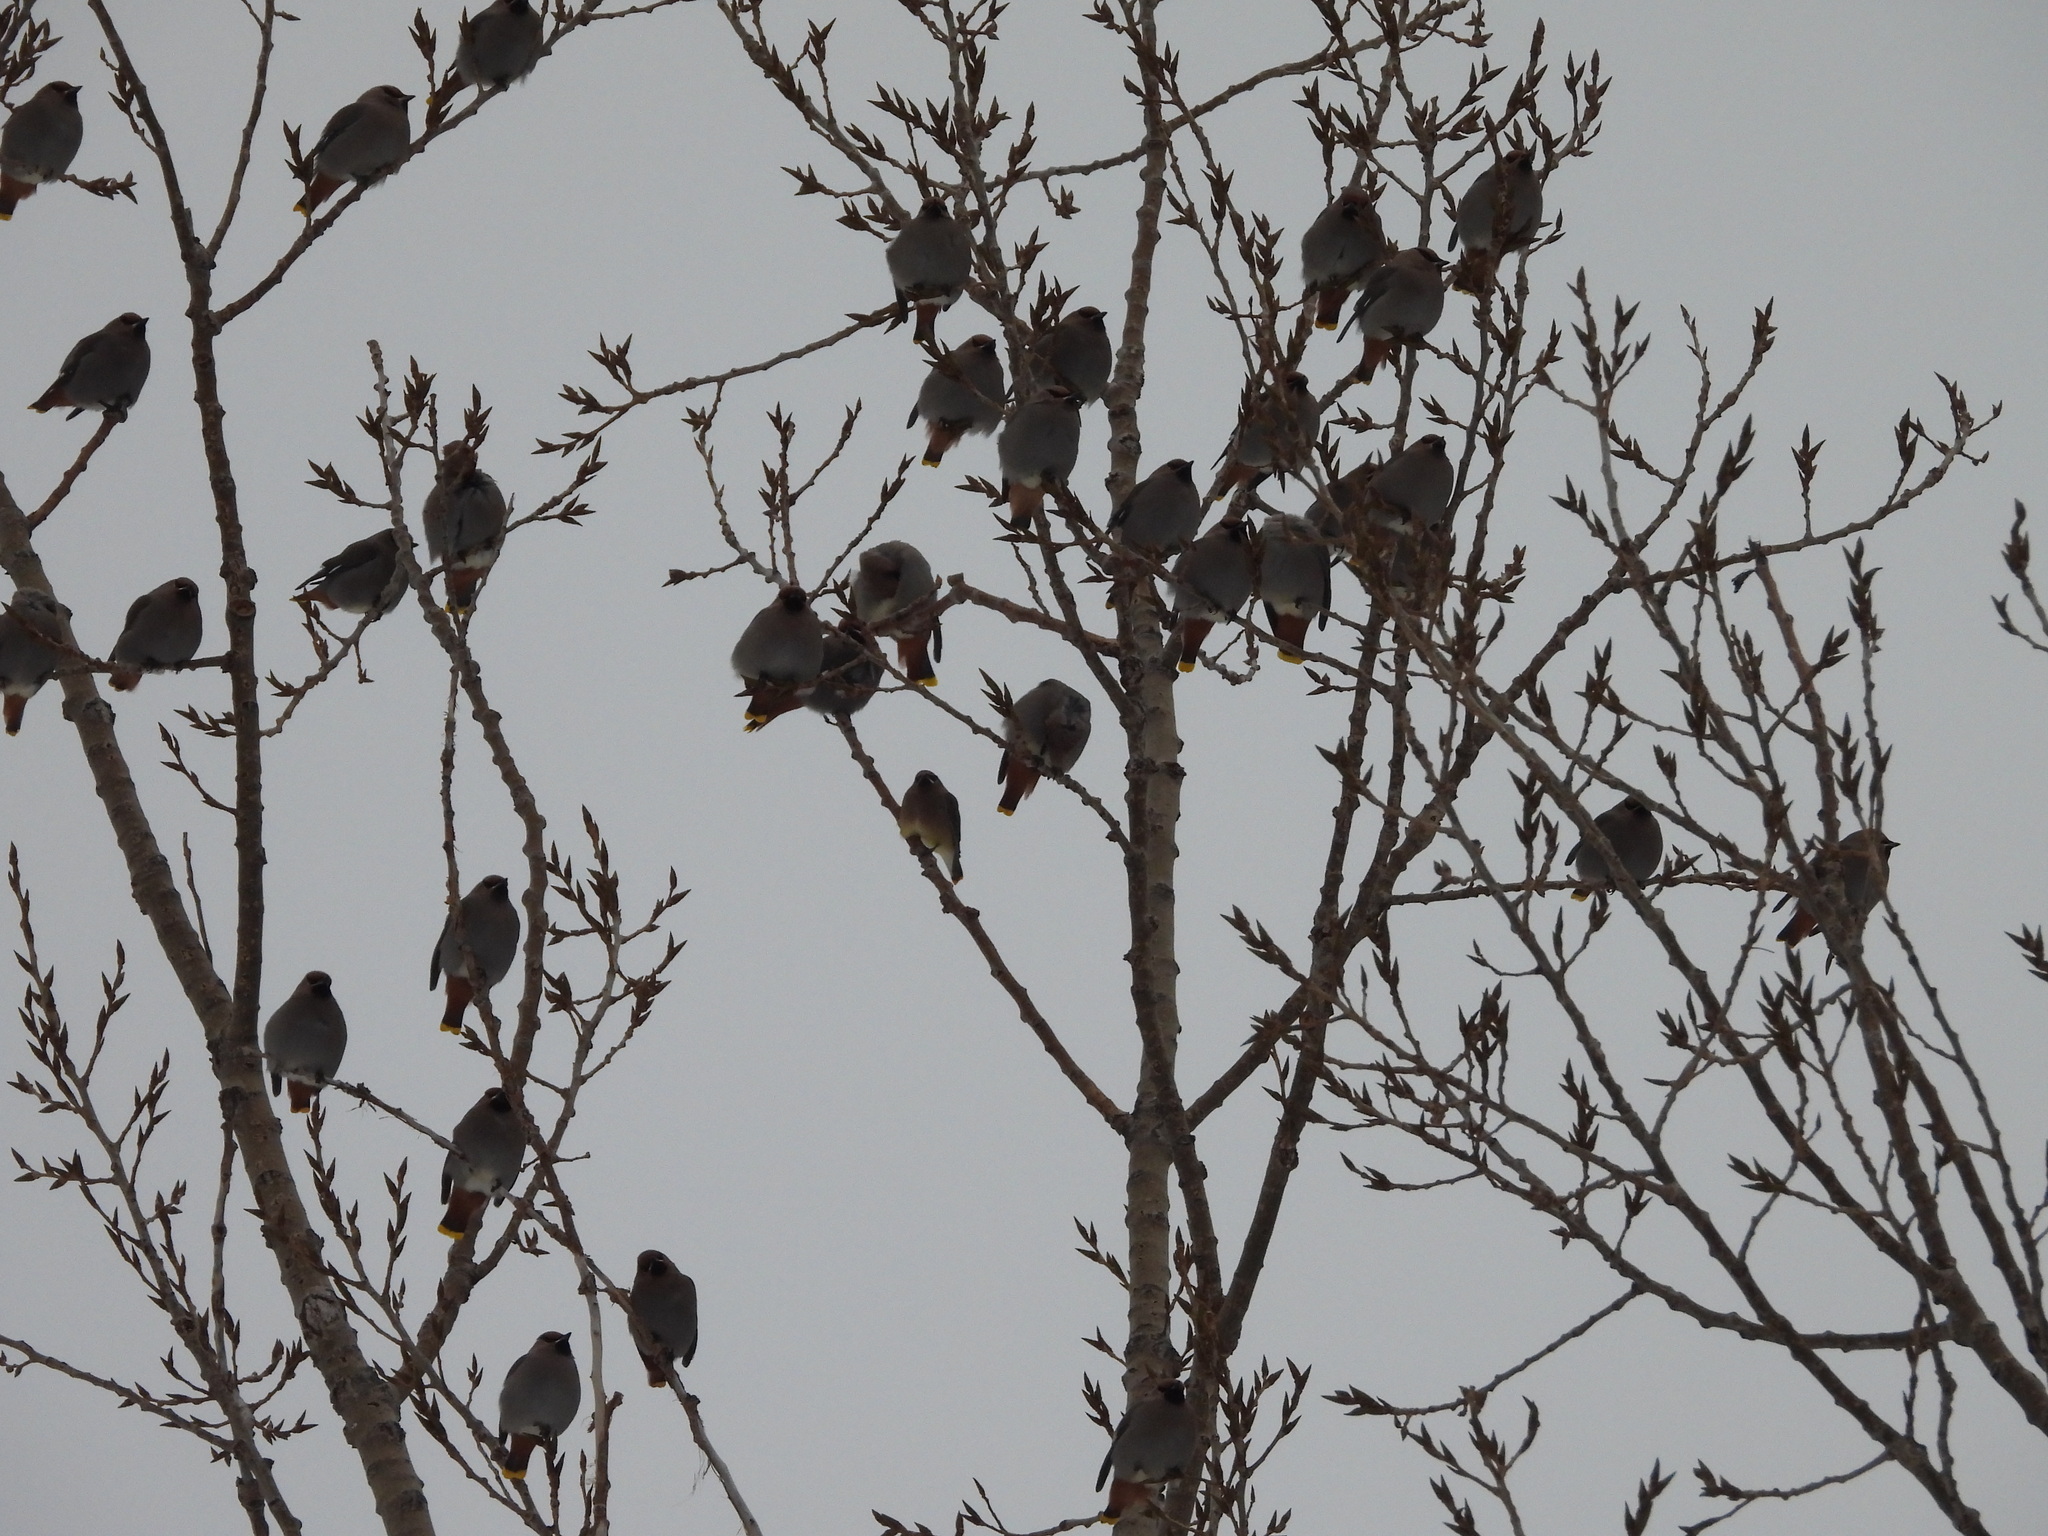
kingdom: Animalia
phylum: Chordata
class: Aves
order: Passeriformes
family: Bombycillidae
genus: Bombycilla
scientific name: Bombycilla cedrorum
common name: Cedar waxwing
